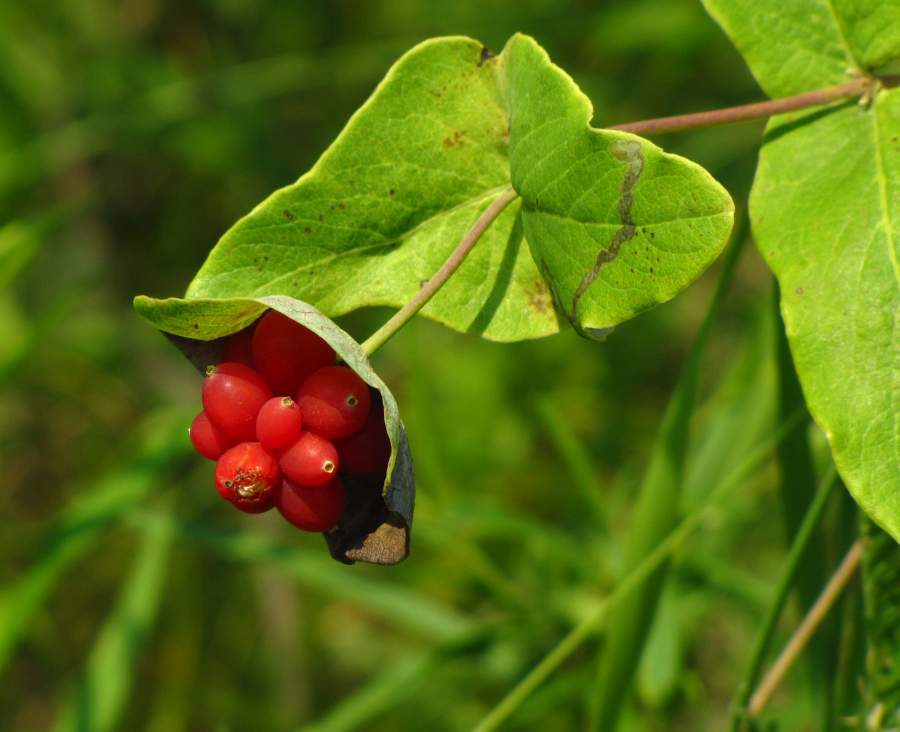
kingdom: Plantae
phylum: Tracheophyta
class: Magnoliopsida
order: Dipsacales
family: Caprifoliaceae
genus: Lonicera
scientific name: Lonicera dioica
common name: Limber honeysuckle
